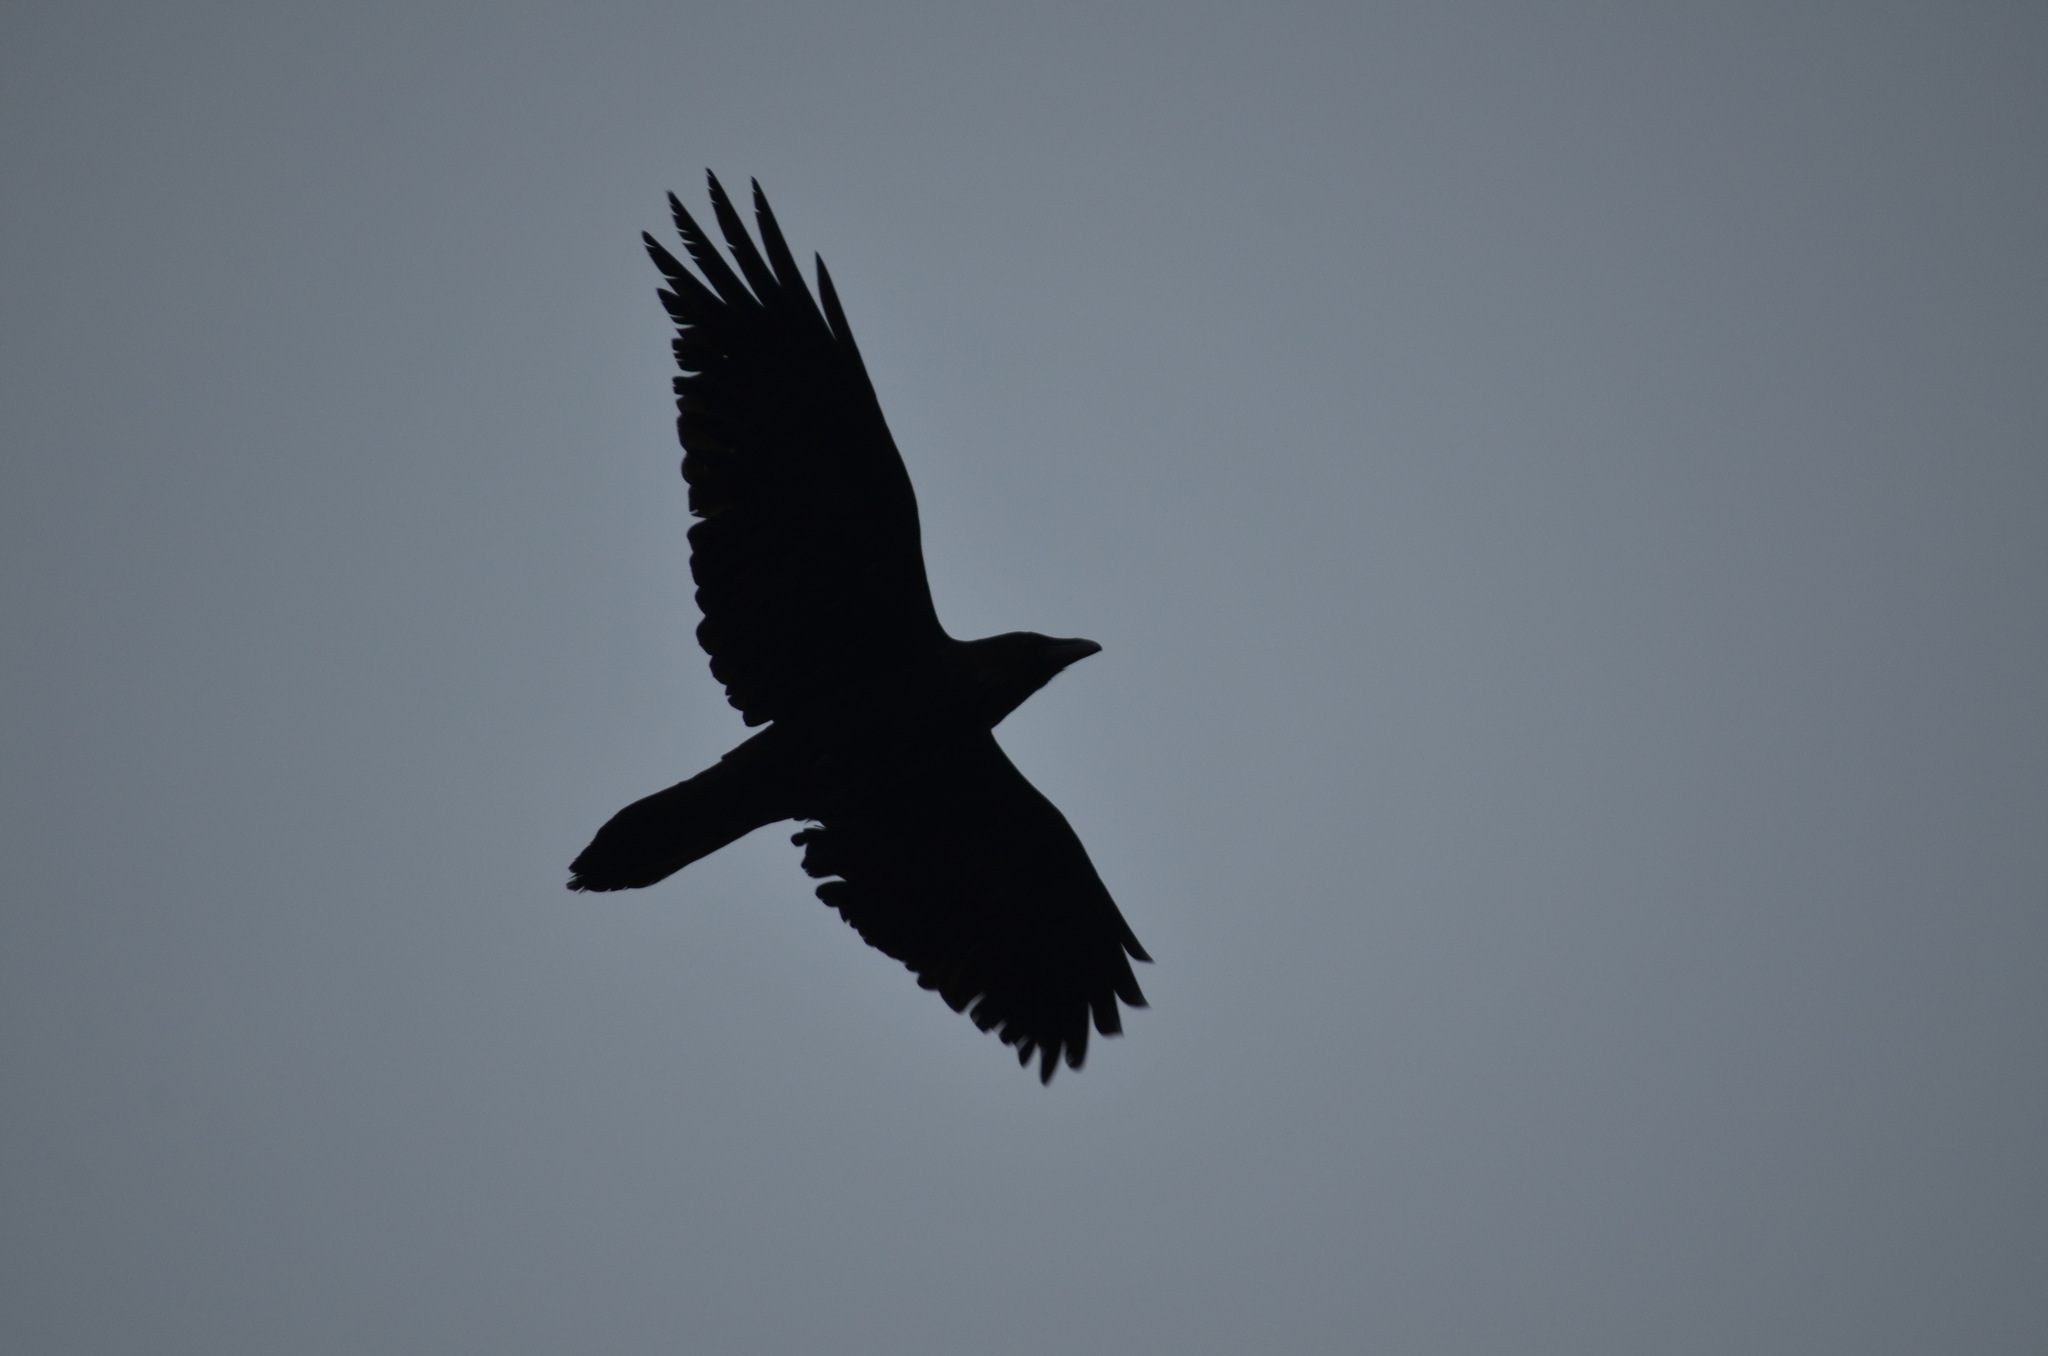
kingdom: Animalia
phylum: Chordata
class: Aves
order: Passeriformes
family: Corvidae
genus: Corvus
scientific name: Corvus corax
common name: Common raven
